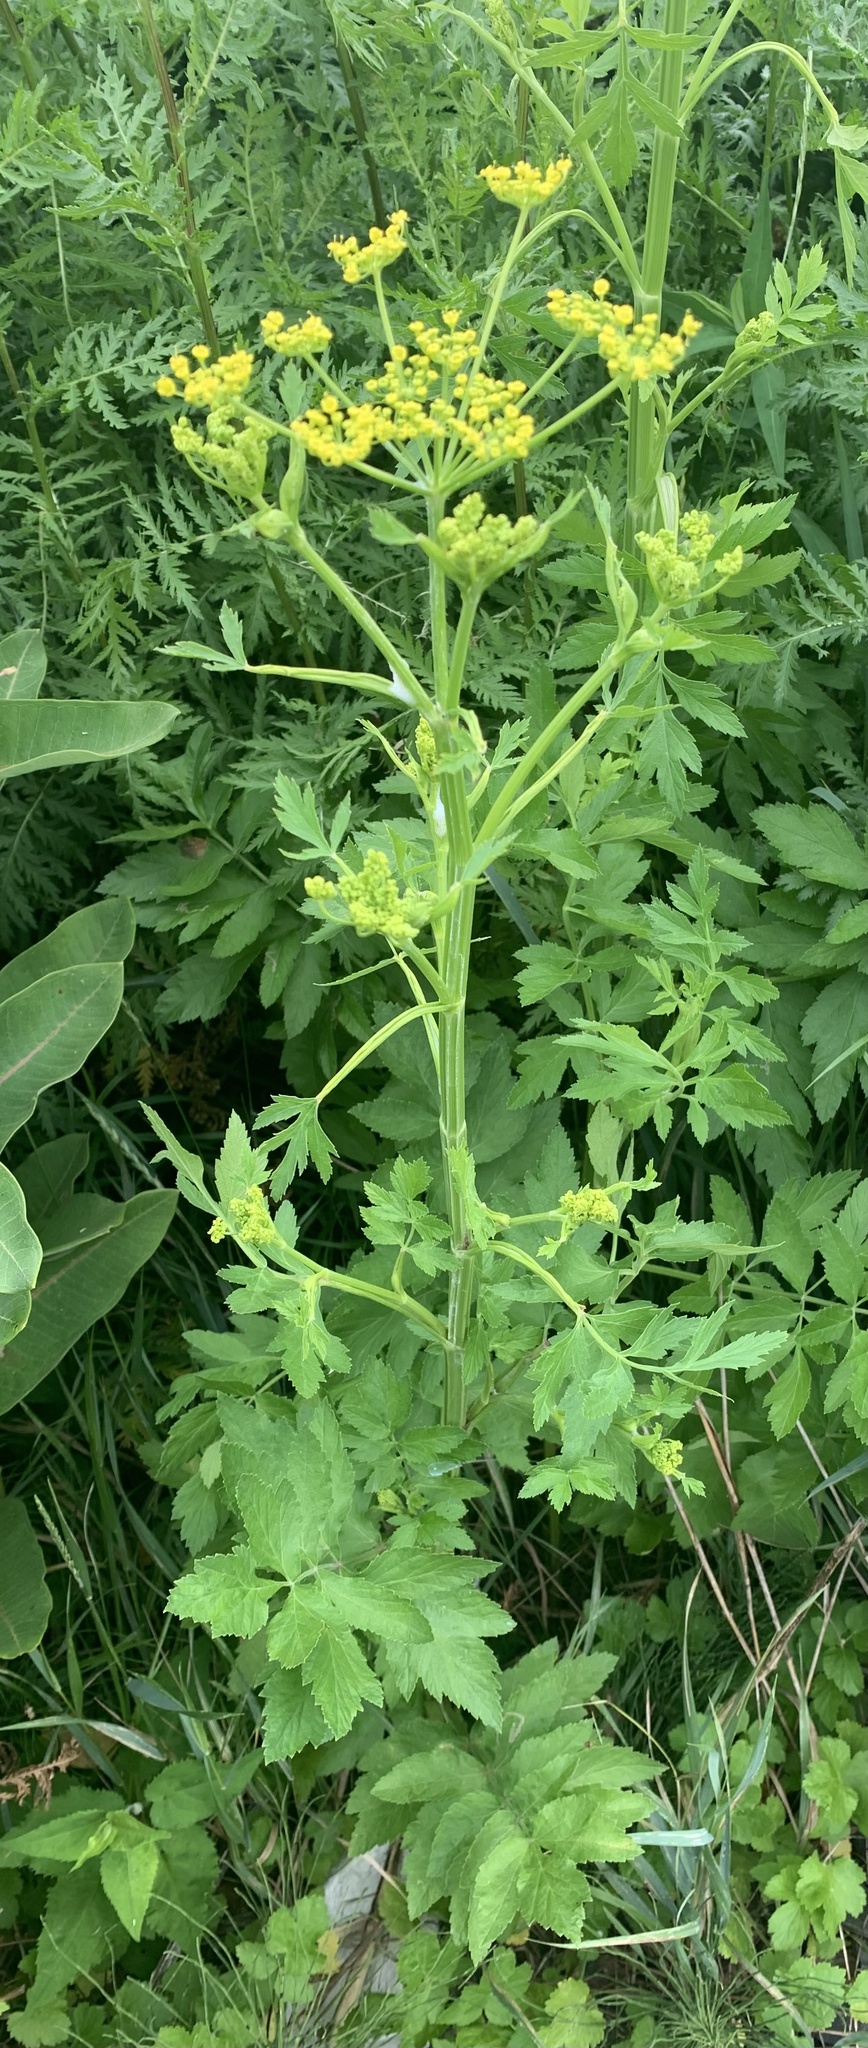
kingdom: Plantae
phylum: Tracheophyta
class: Magnoliopsida
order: Apiales
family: Apiaceae
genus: Pastinaca
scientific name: Pastinaca sativa
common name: Wild parsnip
